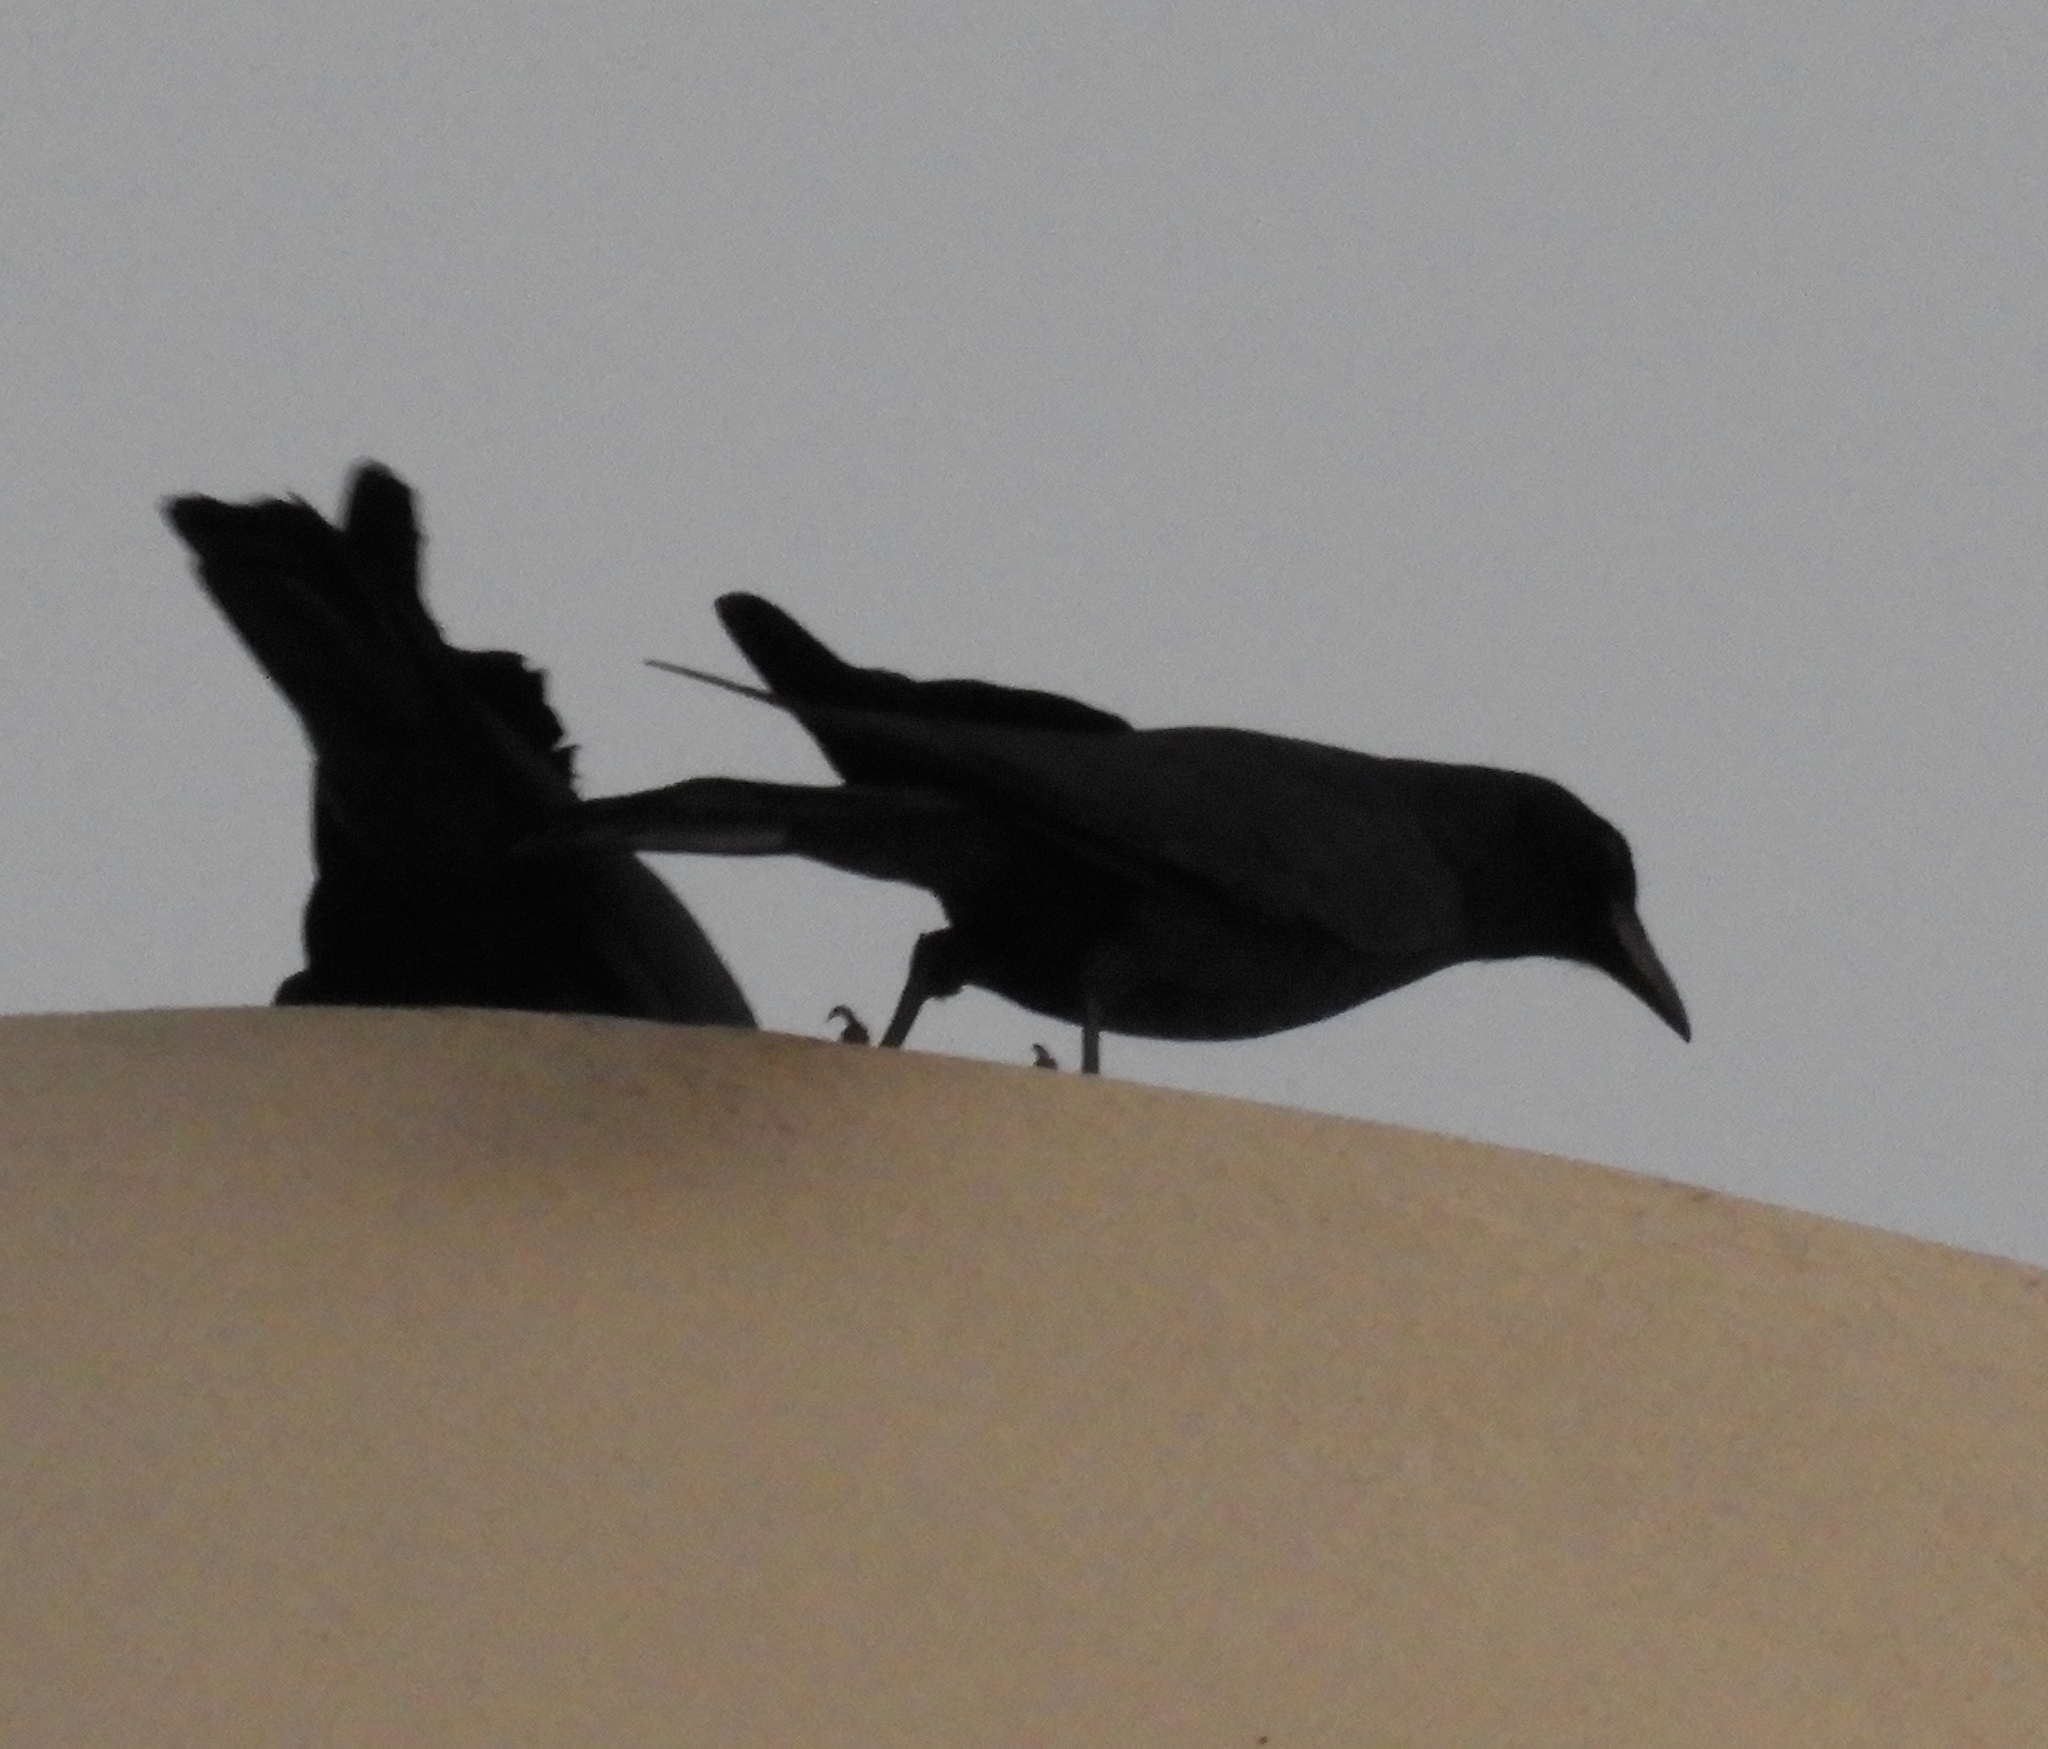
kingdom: Animalia
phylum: Chordata
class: Aves
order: Passeriformes
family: Corvidae
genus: Corvus
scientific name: Corvus sinaloae
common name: Sinaloa crow
